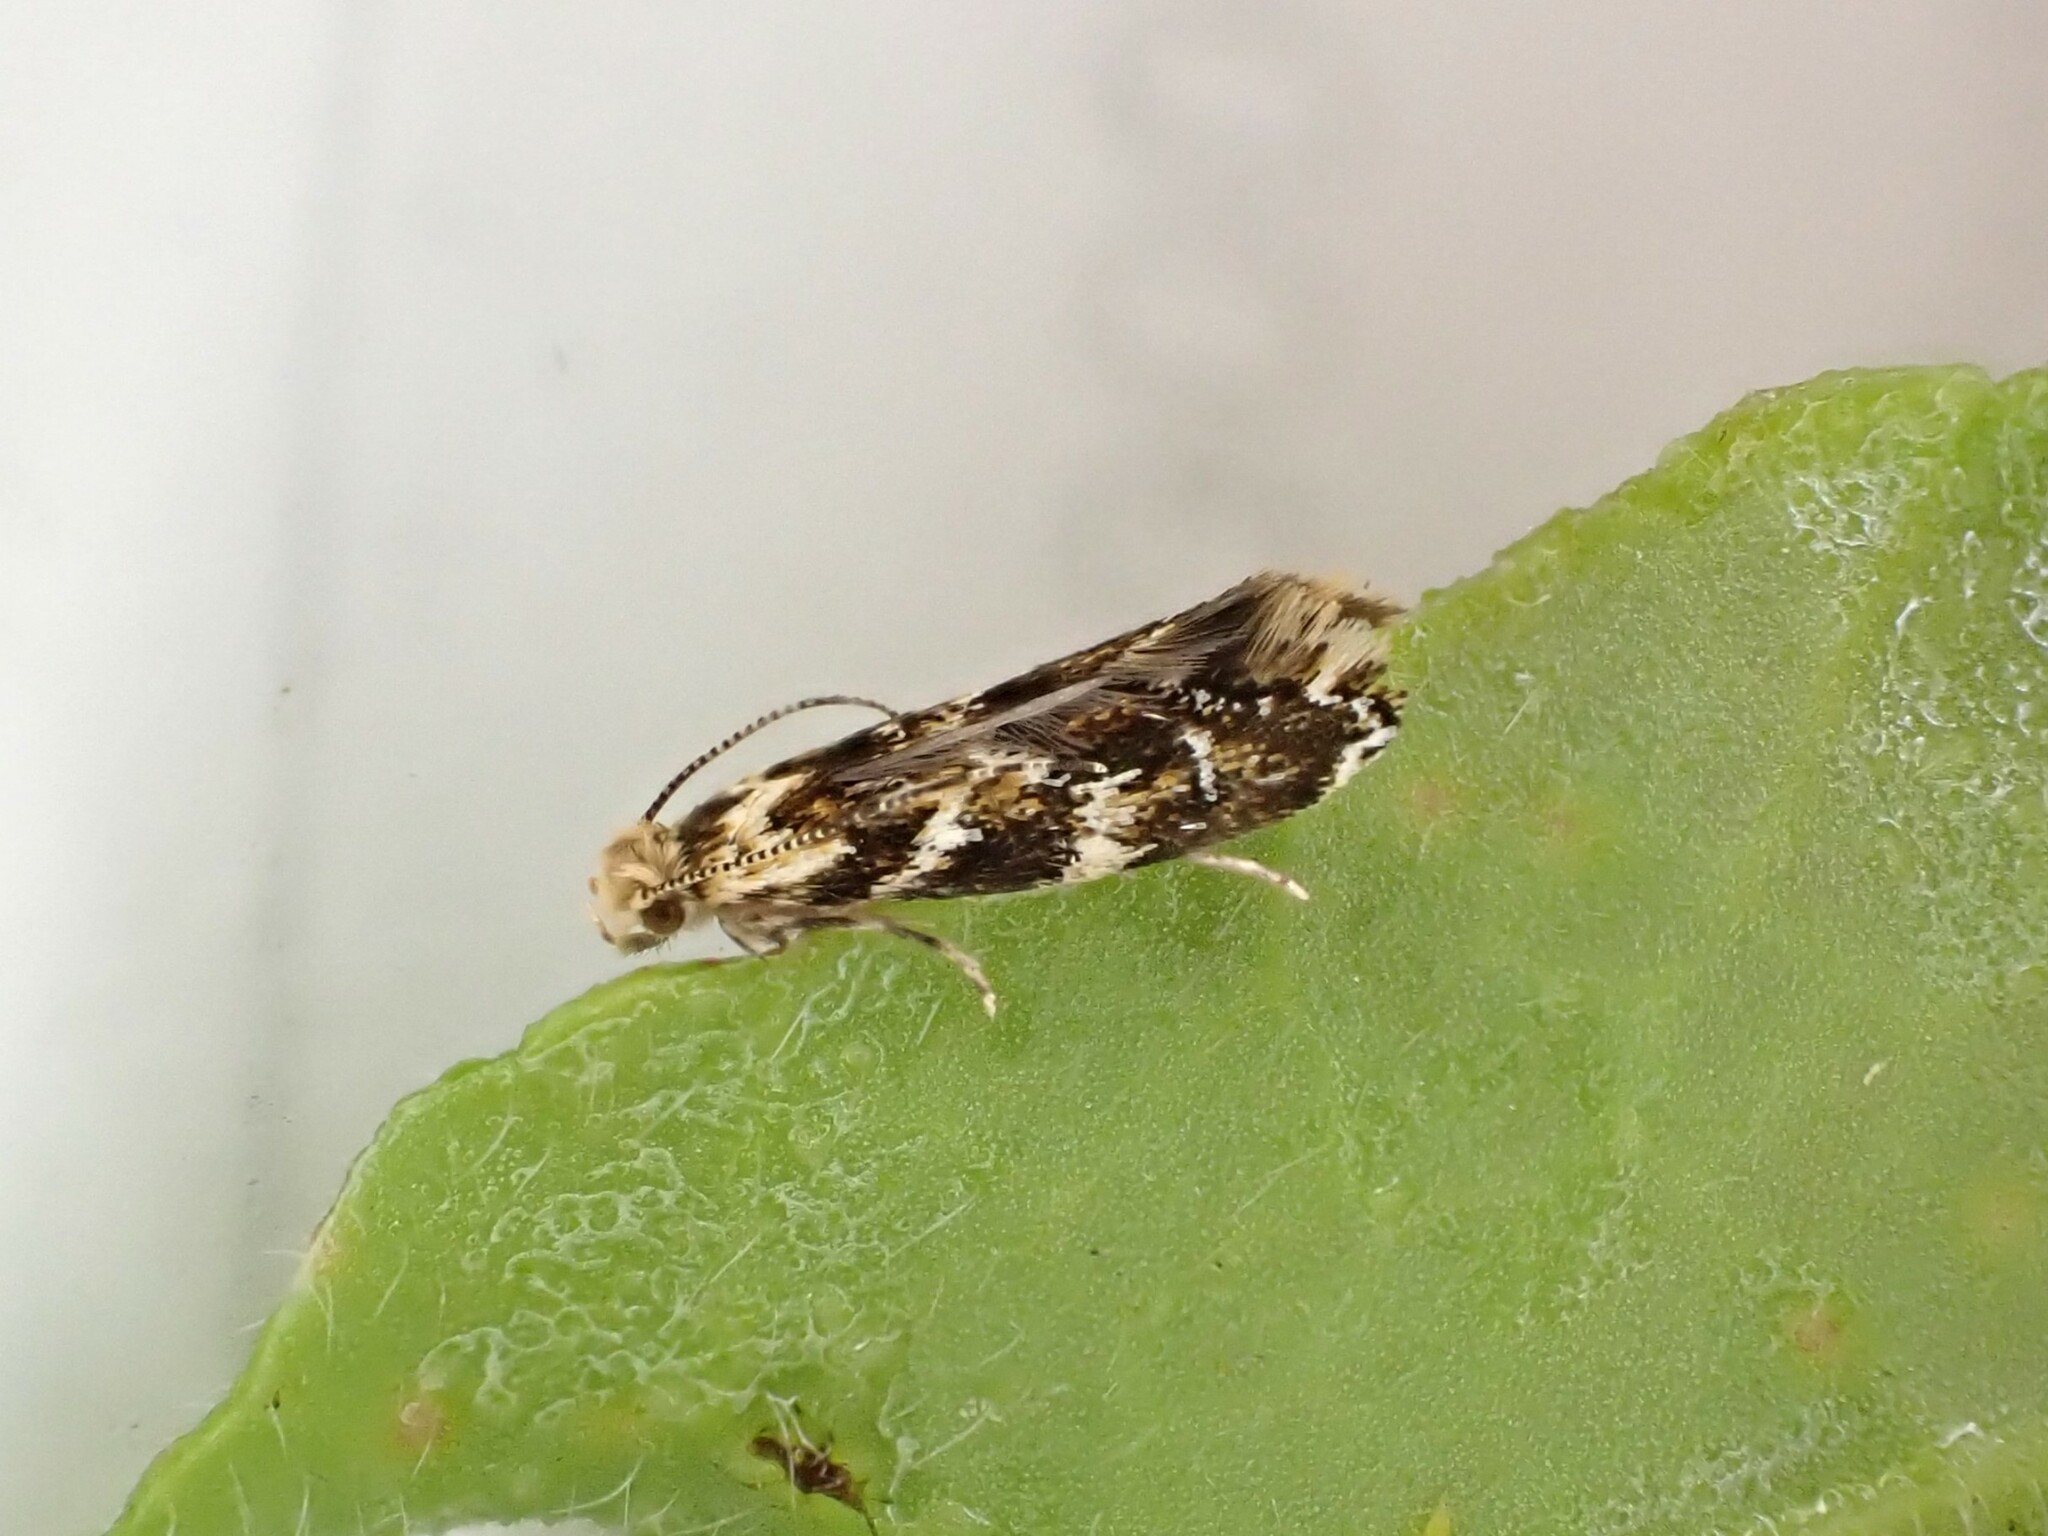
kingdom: Animalia
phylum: Arthropoda
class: Insecta
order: Lepidoptera
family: Dryadaulidae
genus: Dryadaula
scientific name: Dryadaula pactolia
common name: Cellar clothes
